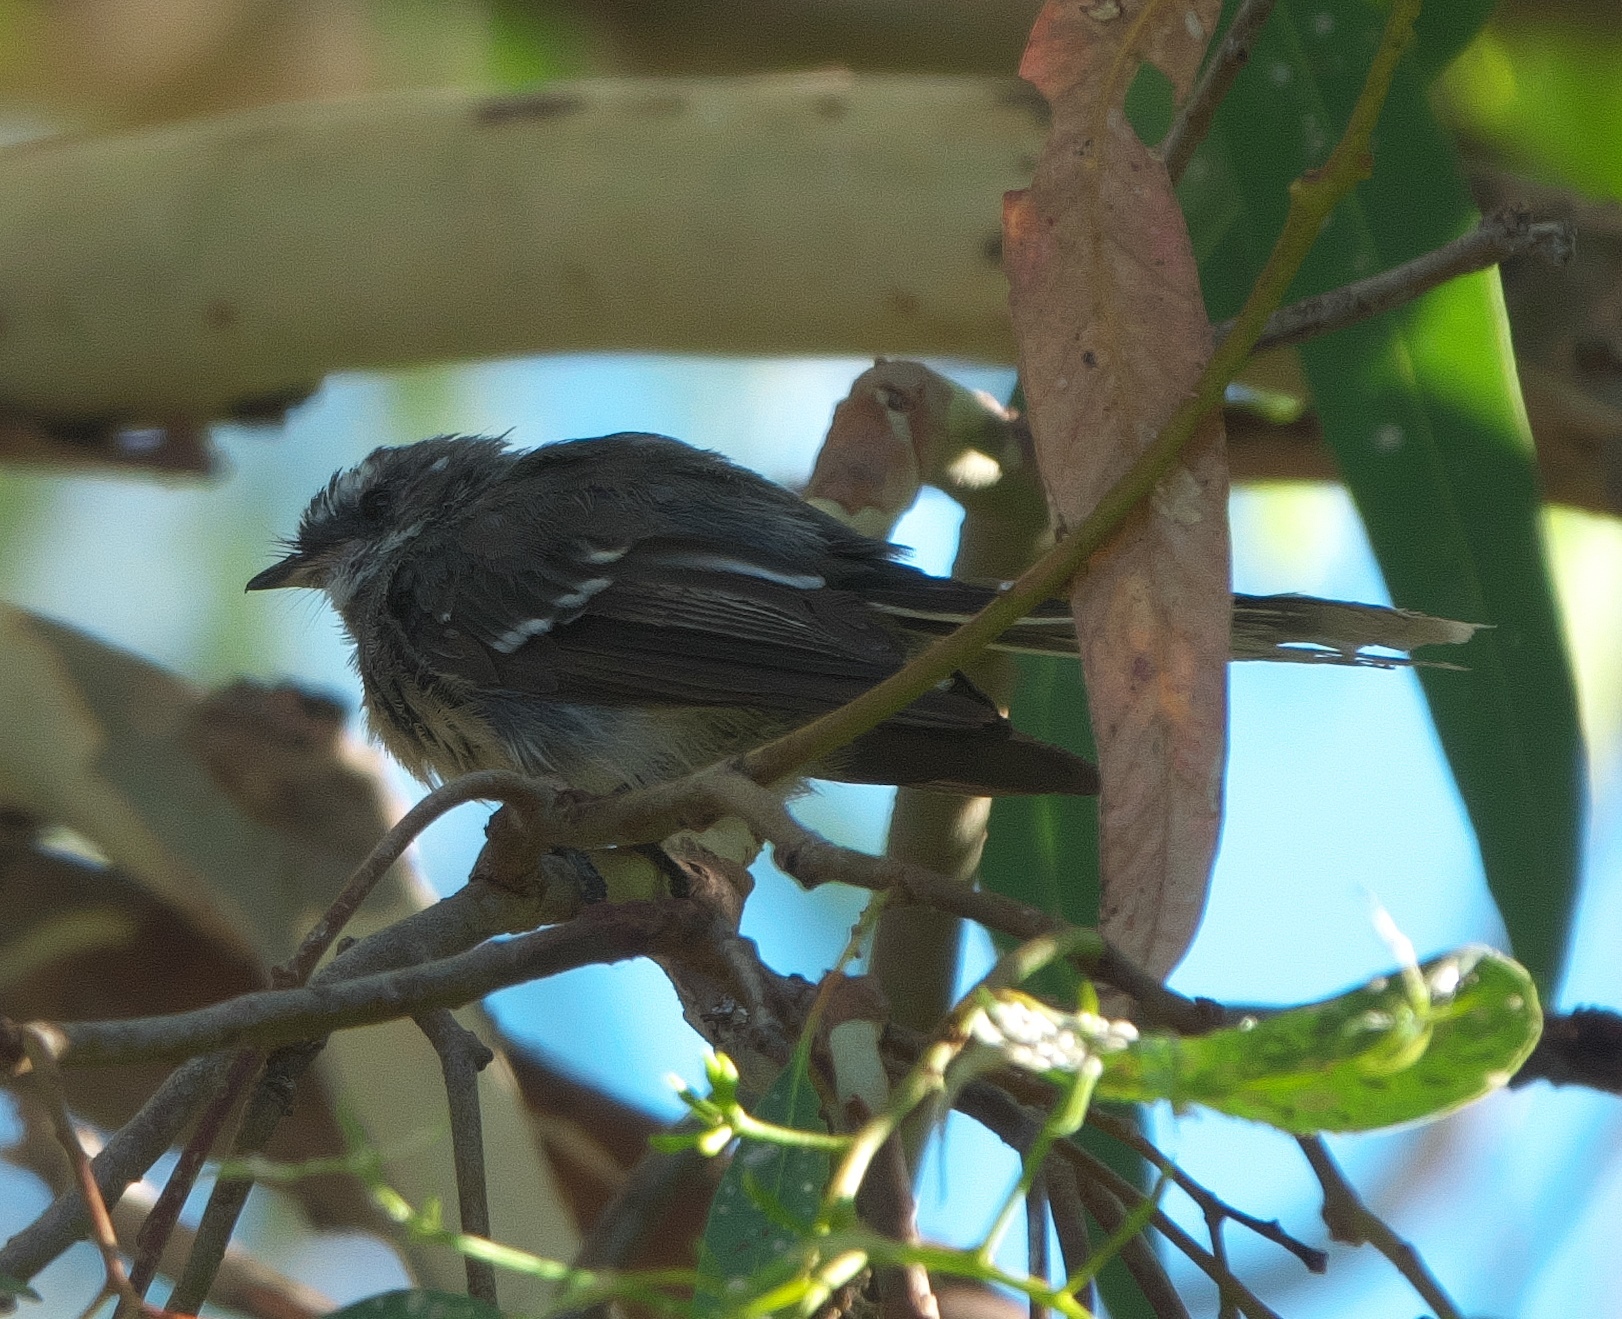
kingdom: Animalia
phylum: Chordata
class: Aves
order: Passeriformes
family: Rhipiduridae
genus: Rhipidura
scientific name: Rhipidura albiscapa
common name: Grey fantail
